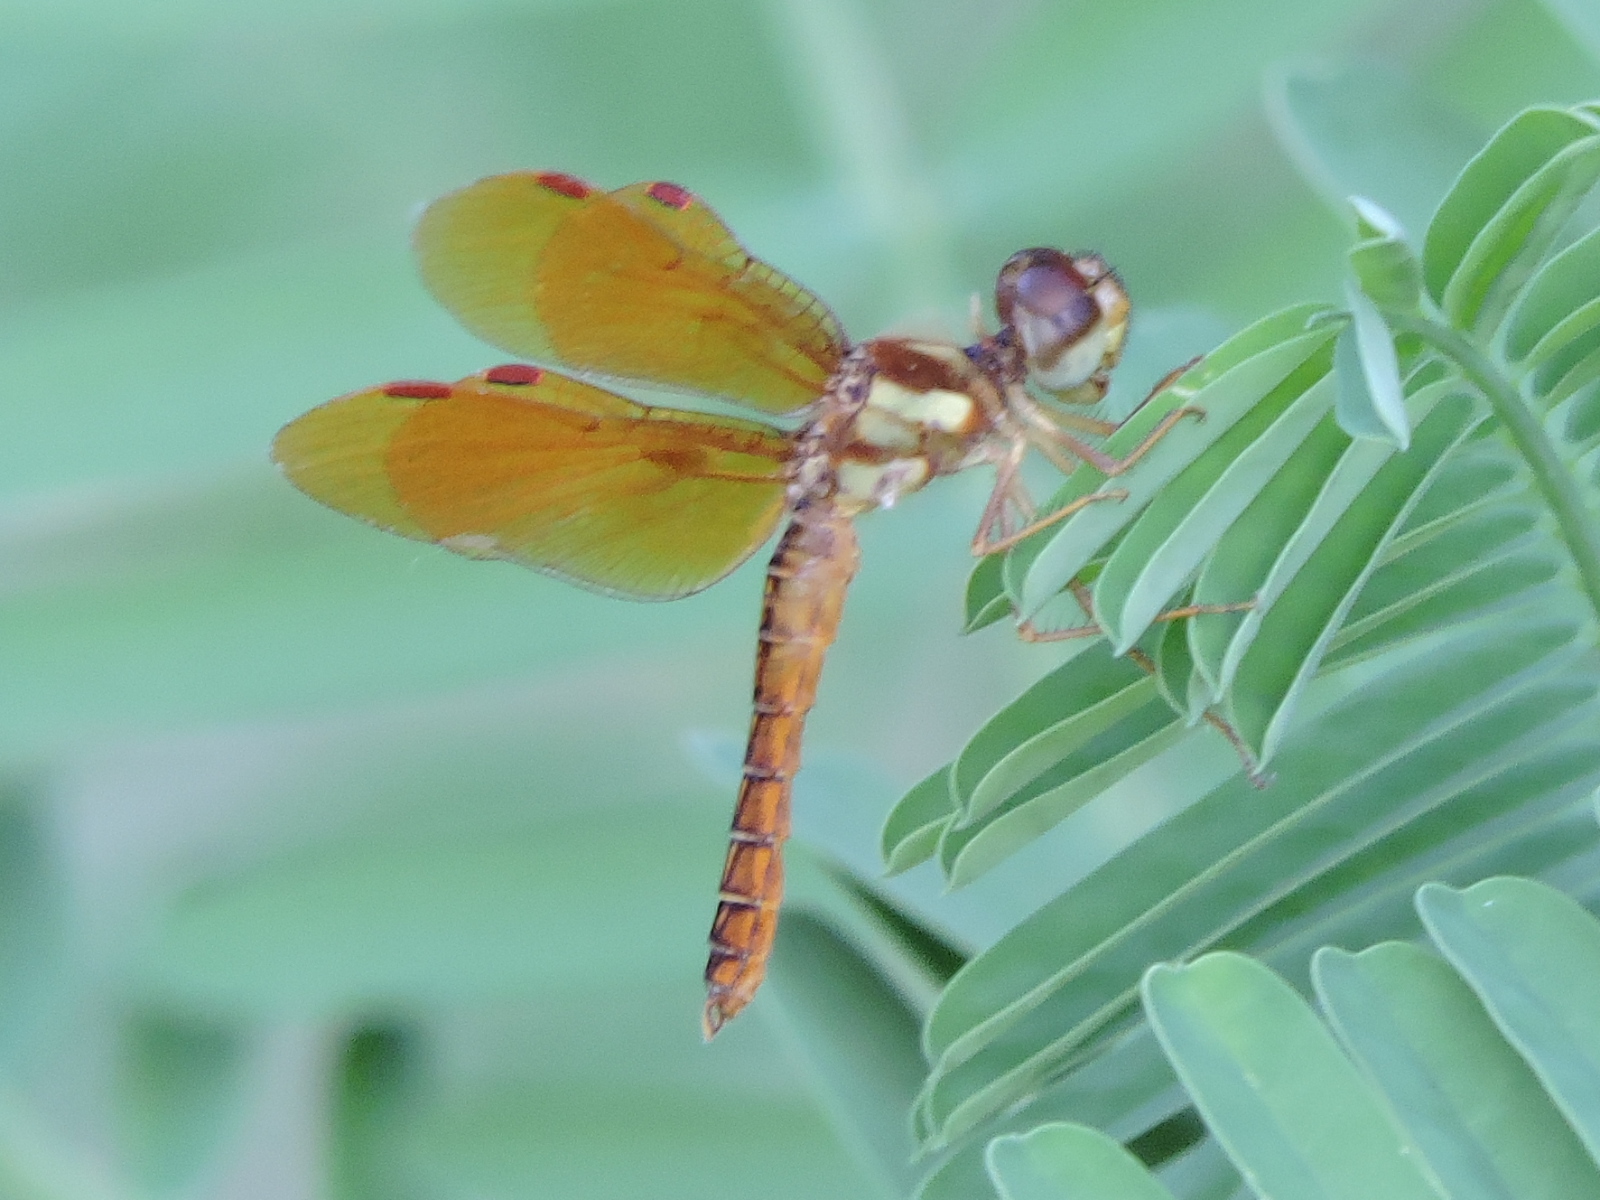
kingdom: Animalia
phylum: Arthropoda
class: Insecta
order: Odonata
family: Libellulidae
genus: Perithemis
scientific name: Perithemis tenera
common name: Eastern amberwing
